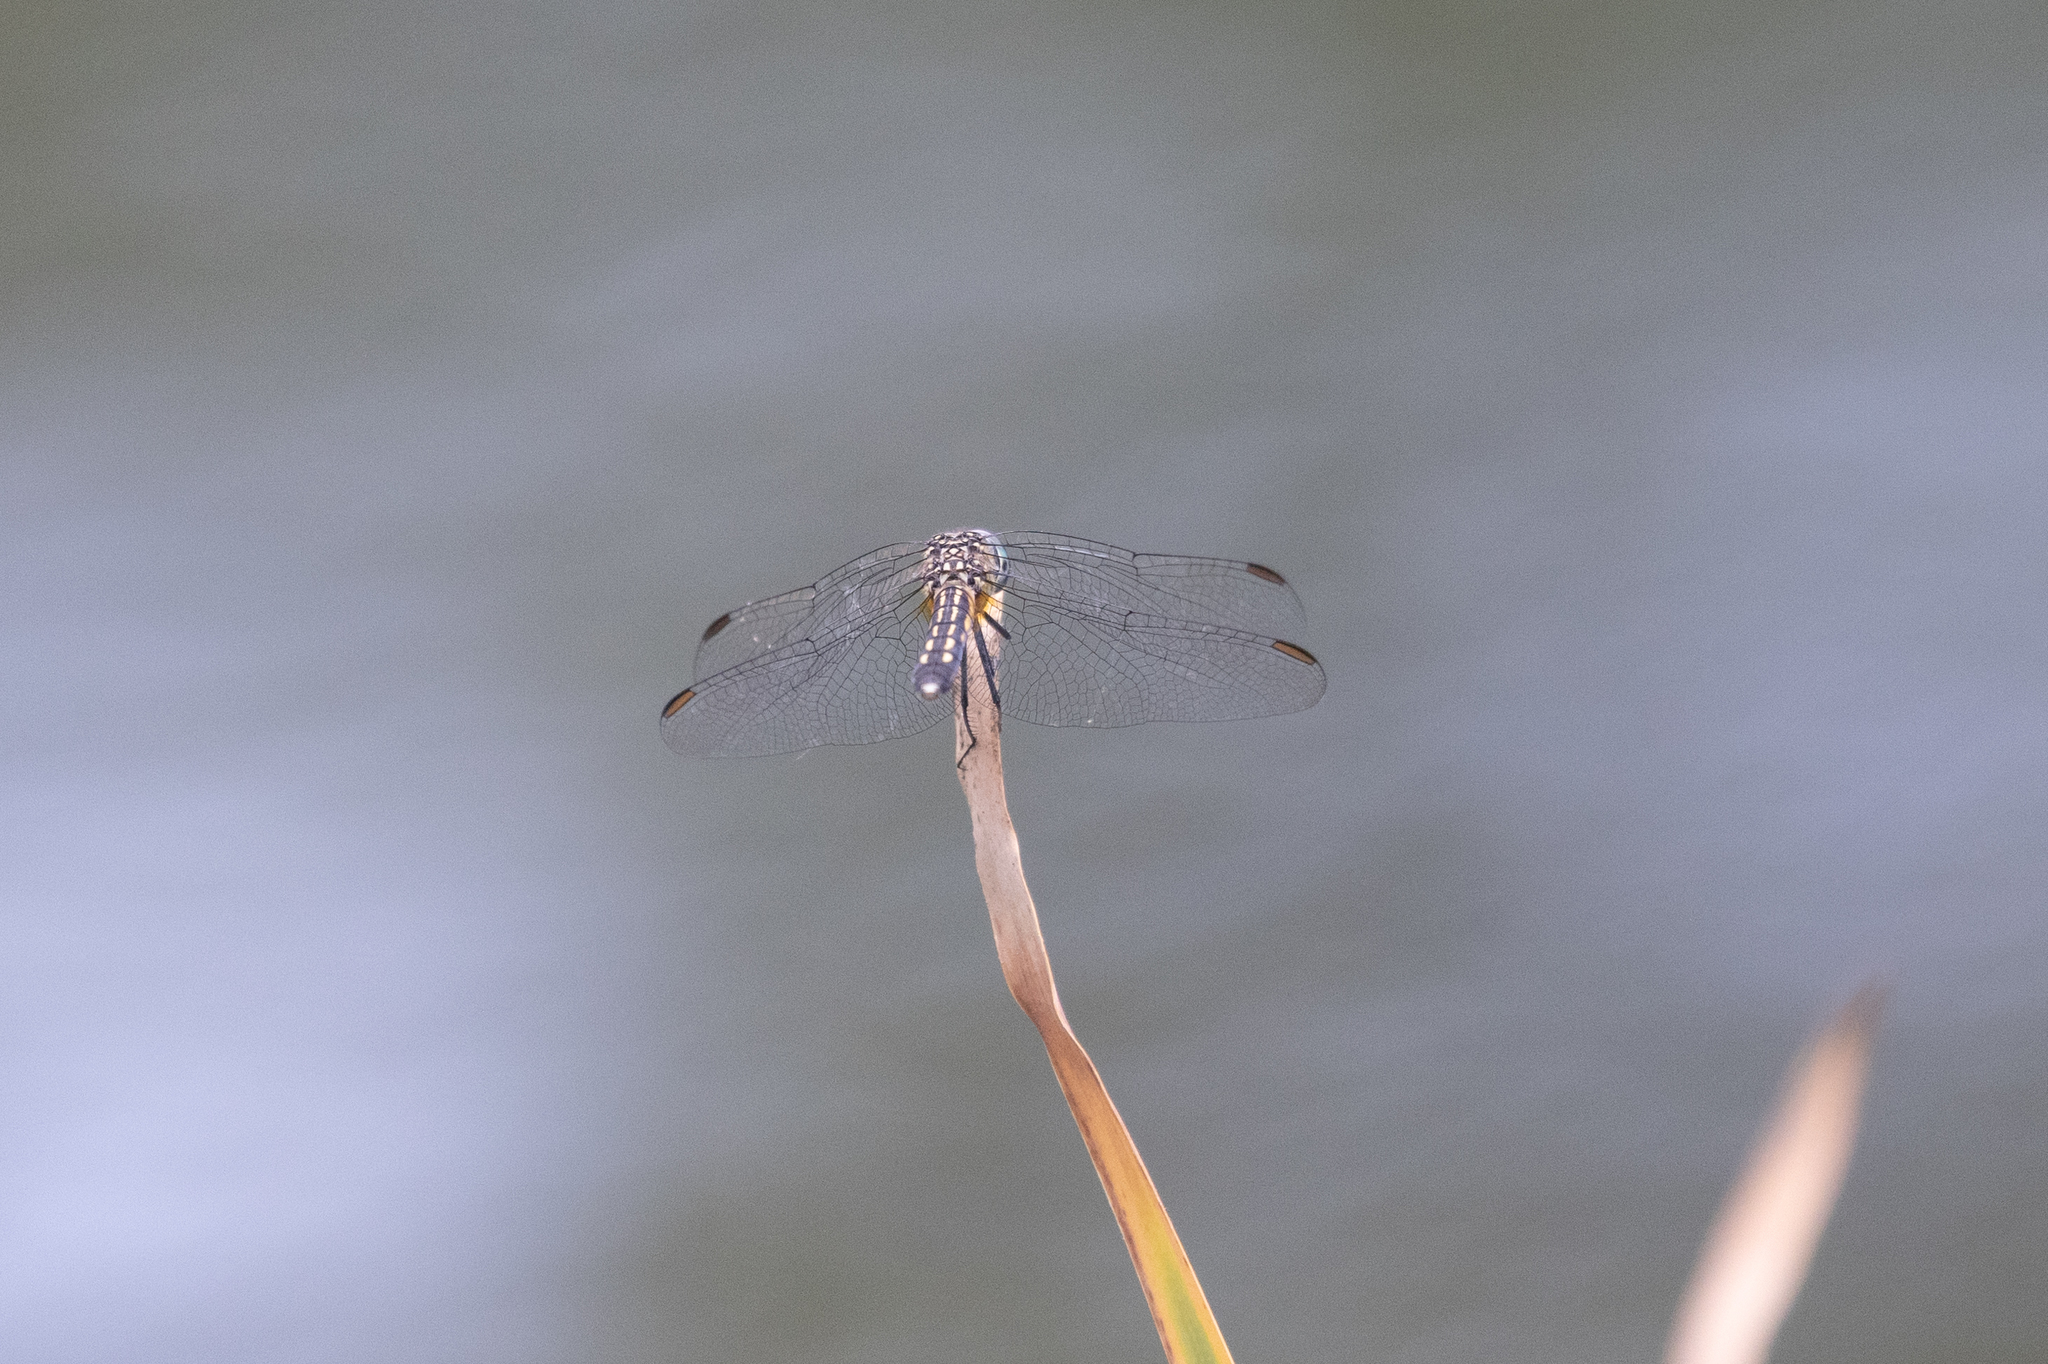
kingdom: Animalia
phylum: Arthropoda
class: Insecta
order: Odonata
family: Libellulidae
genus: Pachydiplax
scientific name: Pachydiplax longipennis
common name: Blue dasher
